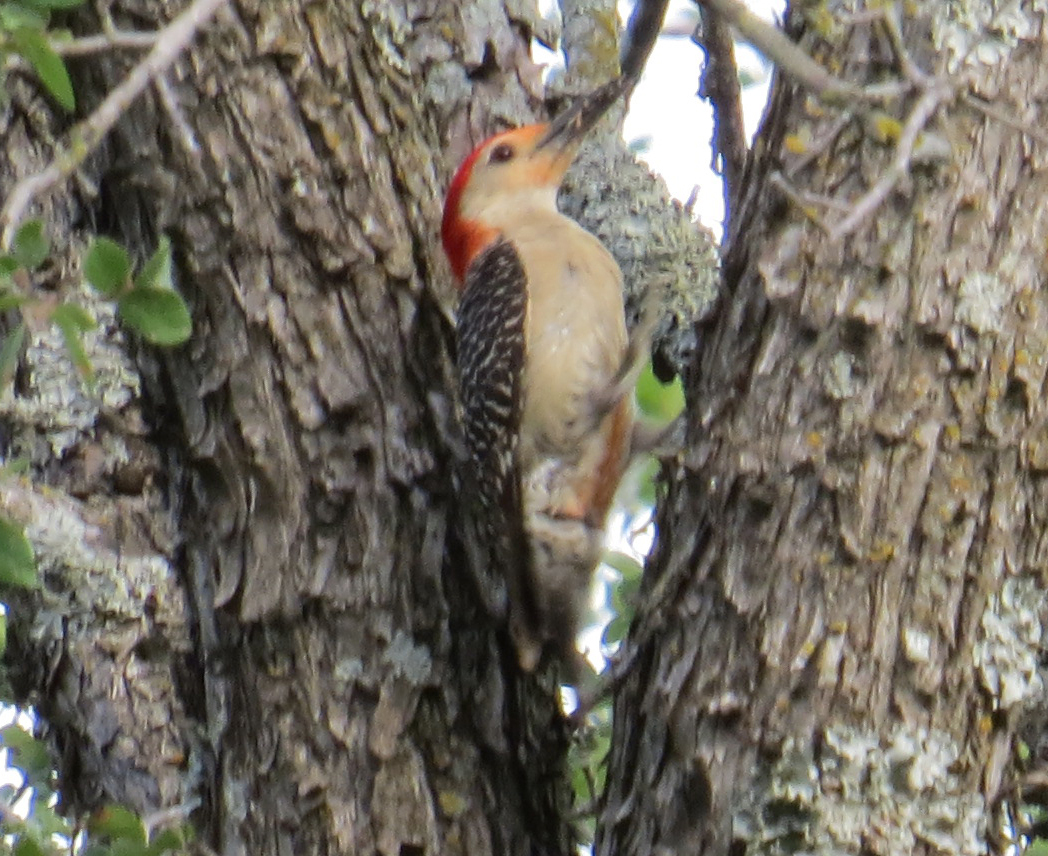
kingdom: Animalia
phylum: Chordata
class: Aves
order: Piciformes
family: Picidae
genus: Melanerpes
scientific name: Melanerpes carolinus
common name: Red-bellied woodpecker
